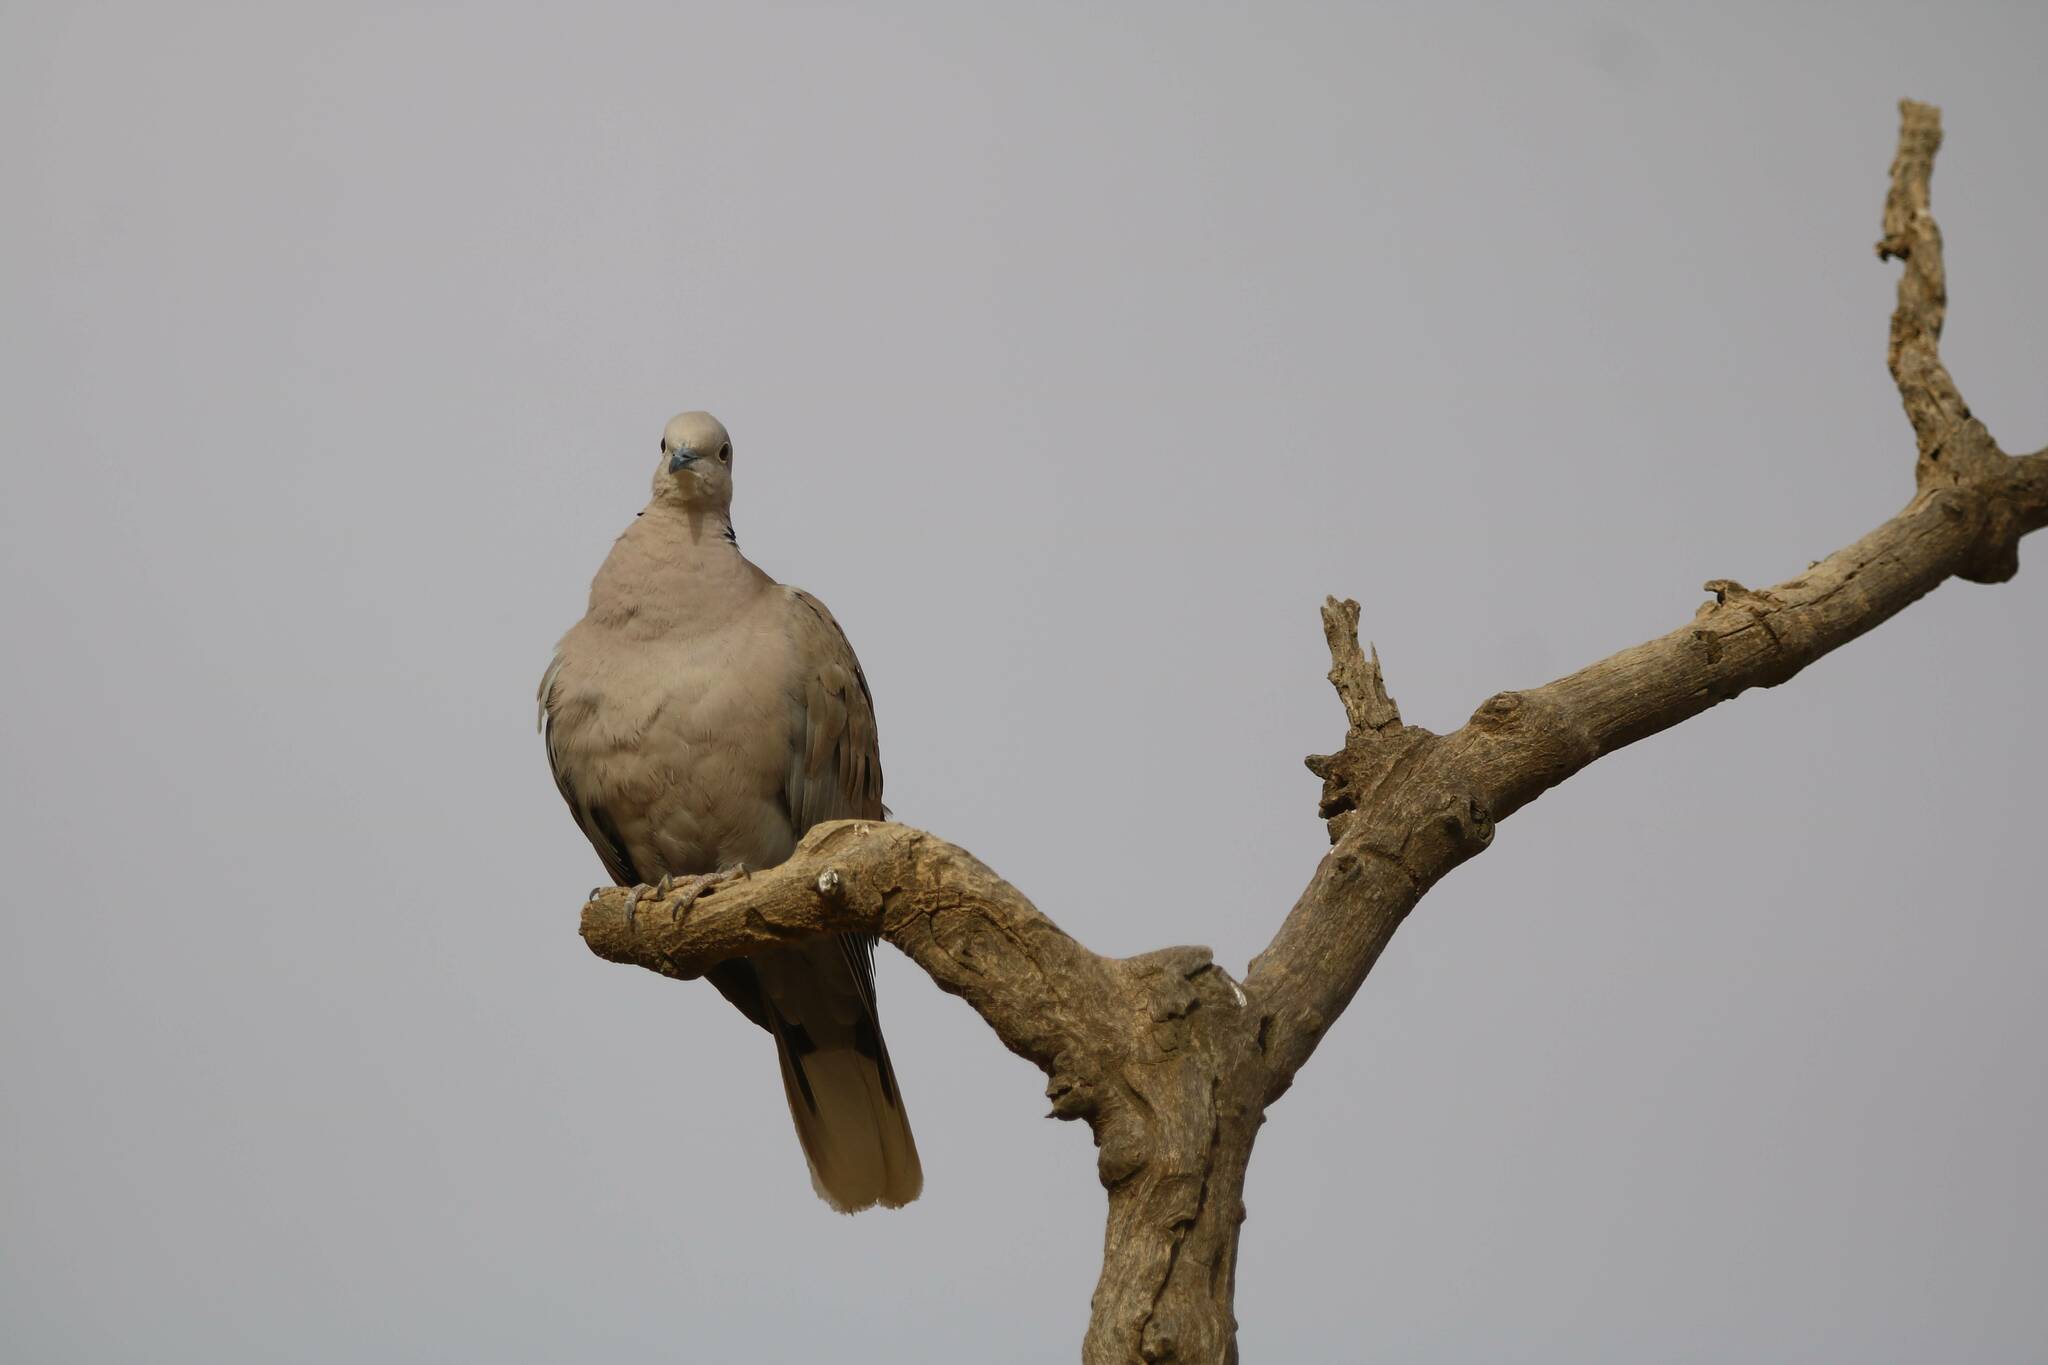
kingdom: Animalia
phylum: Chordata
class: Aves
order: Columbiformes
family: Columbidae
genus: Streptopelia
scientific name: Streptopelia decaocto
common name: Eurasian collared dove
